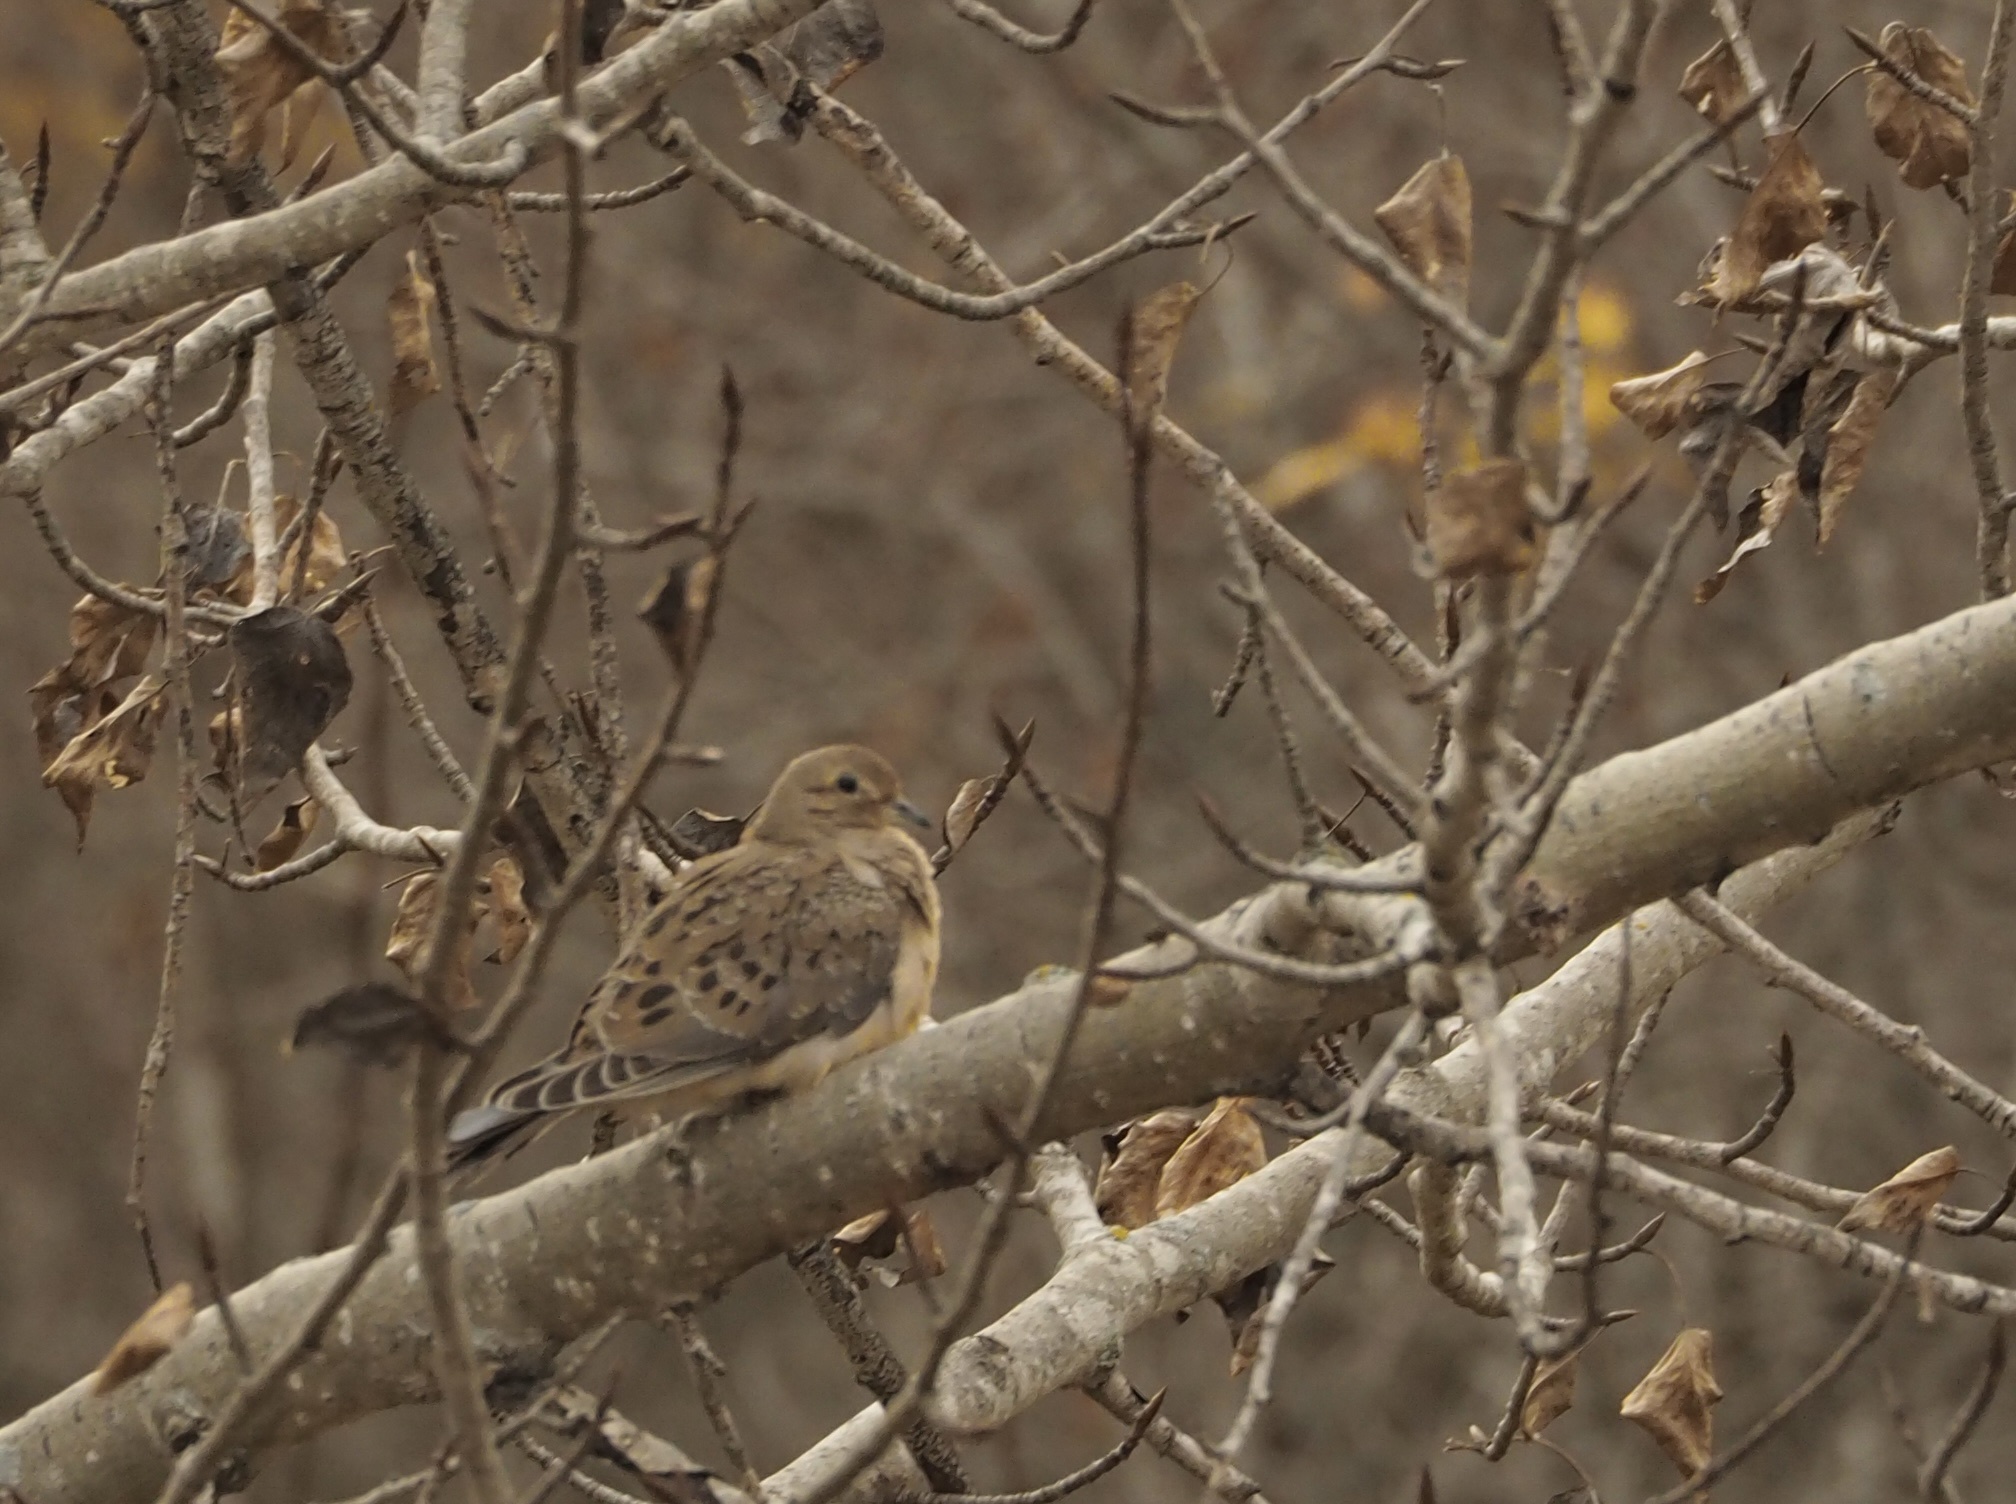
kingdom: Animalia
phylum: Chordata
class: Aves
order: Columbiformes
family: Columbidae
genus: Zenaida
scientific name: Zenaida macroura
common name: Mourning dove
